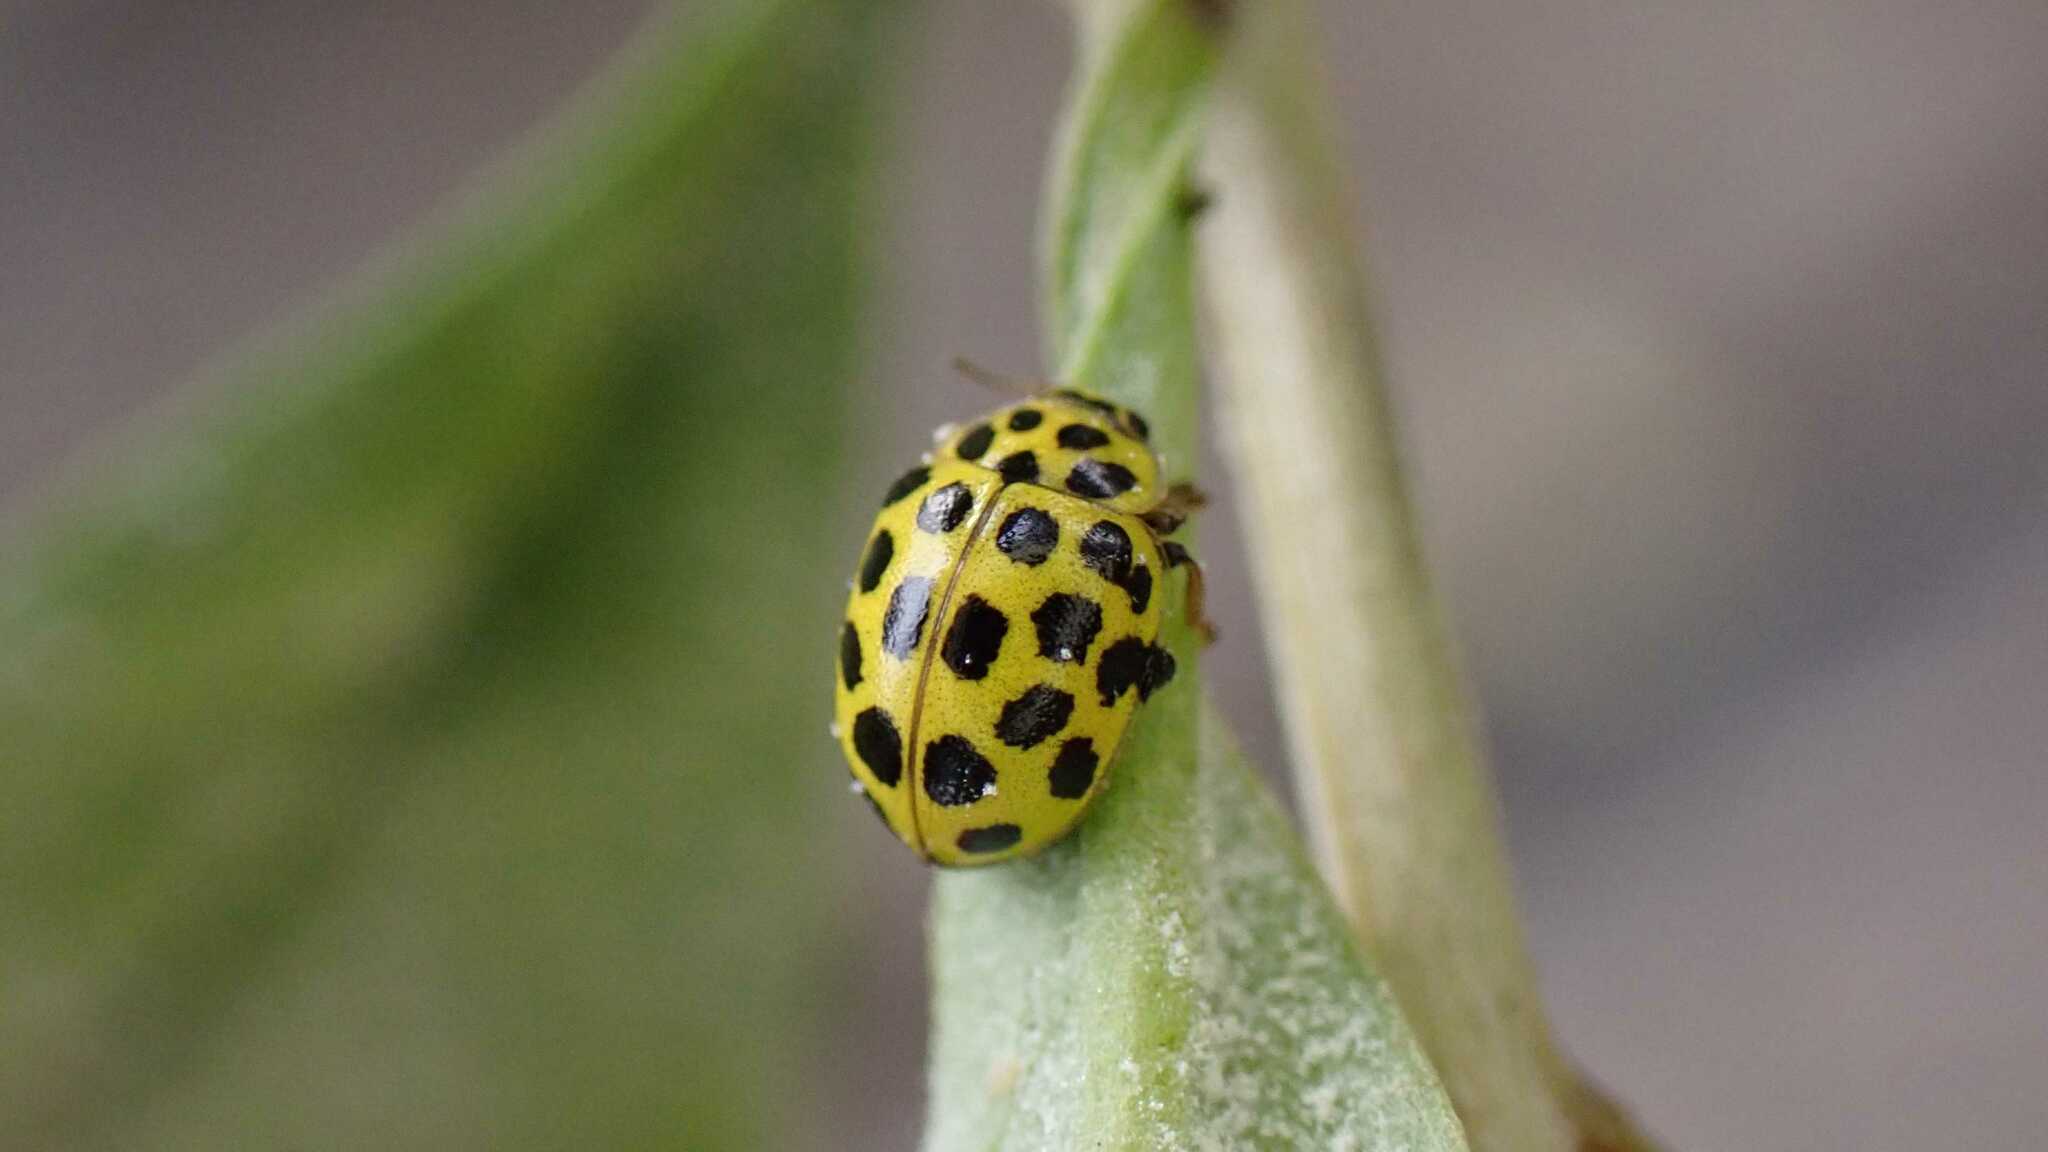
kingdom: Animalia
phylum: Arthropoda
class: Insecta
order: Coleoptera
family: Coccinellidae
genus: Psyllobora
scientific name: Psyllobora vigintiduopunctata
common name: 22-spot ladybird
